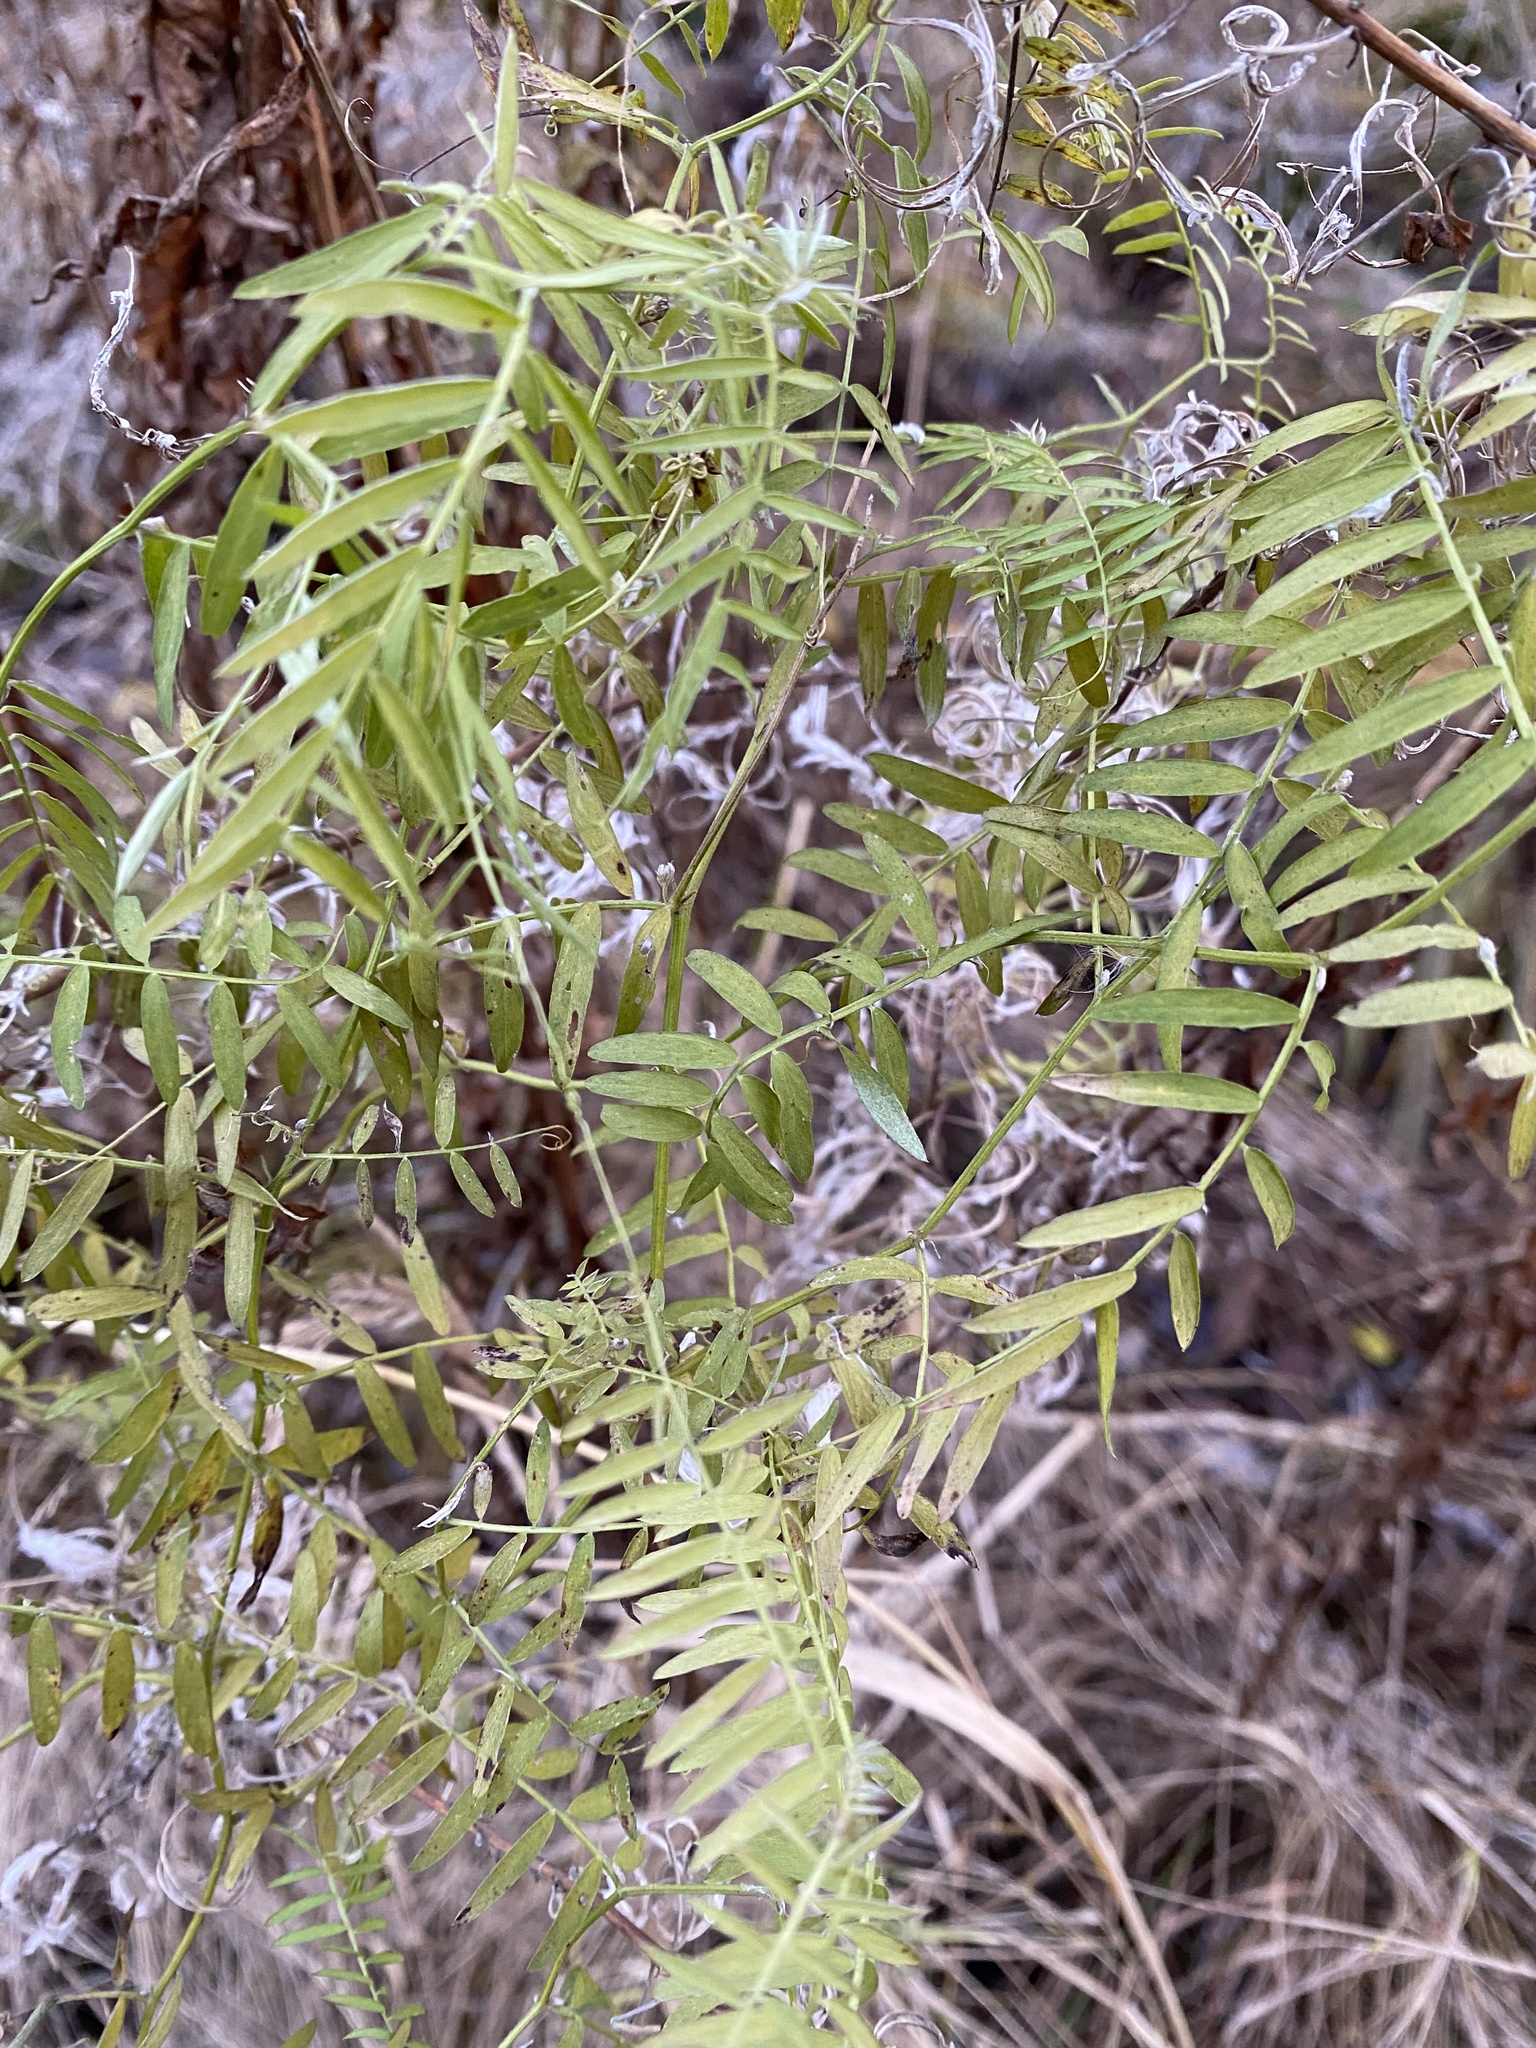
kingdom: Plantae
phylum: Tracheophyta
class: Magnoliopsida
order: Fabales
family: Fabaceae
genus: Vicia
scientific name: Vicia cracca
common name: Bird vetch
